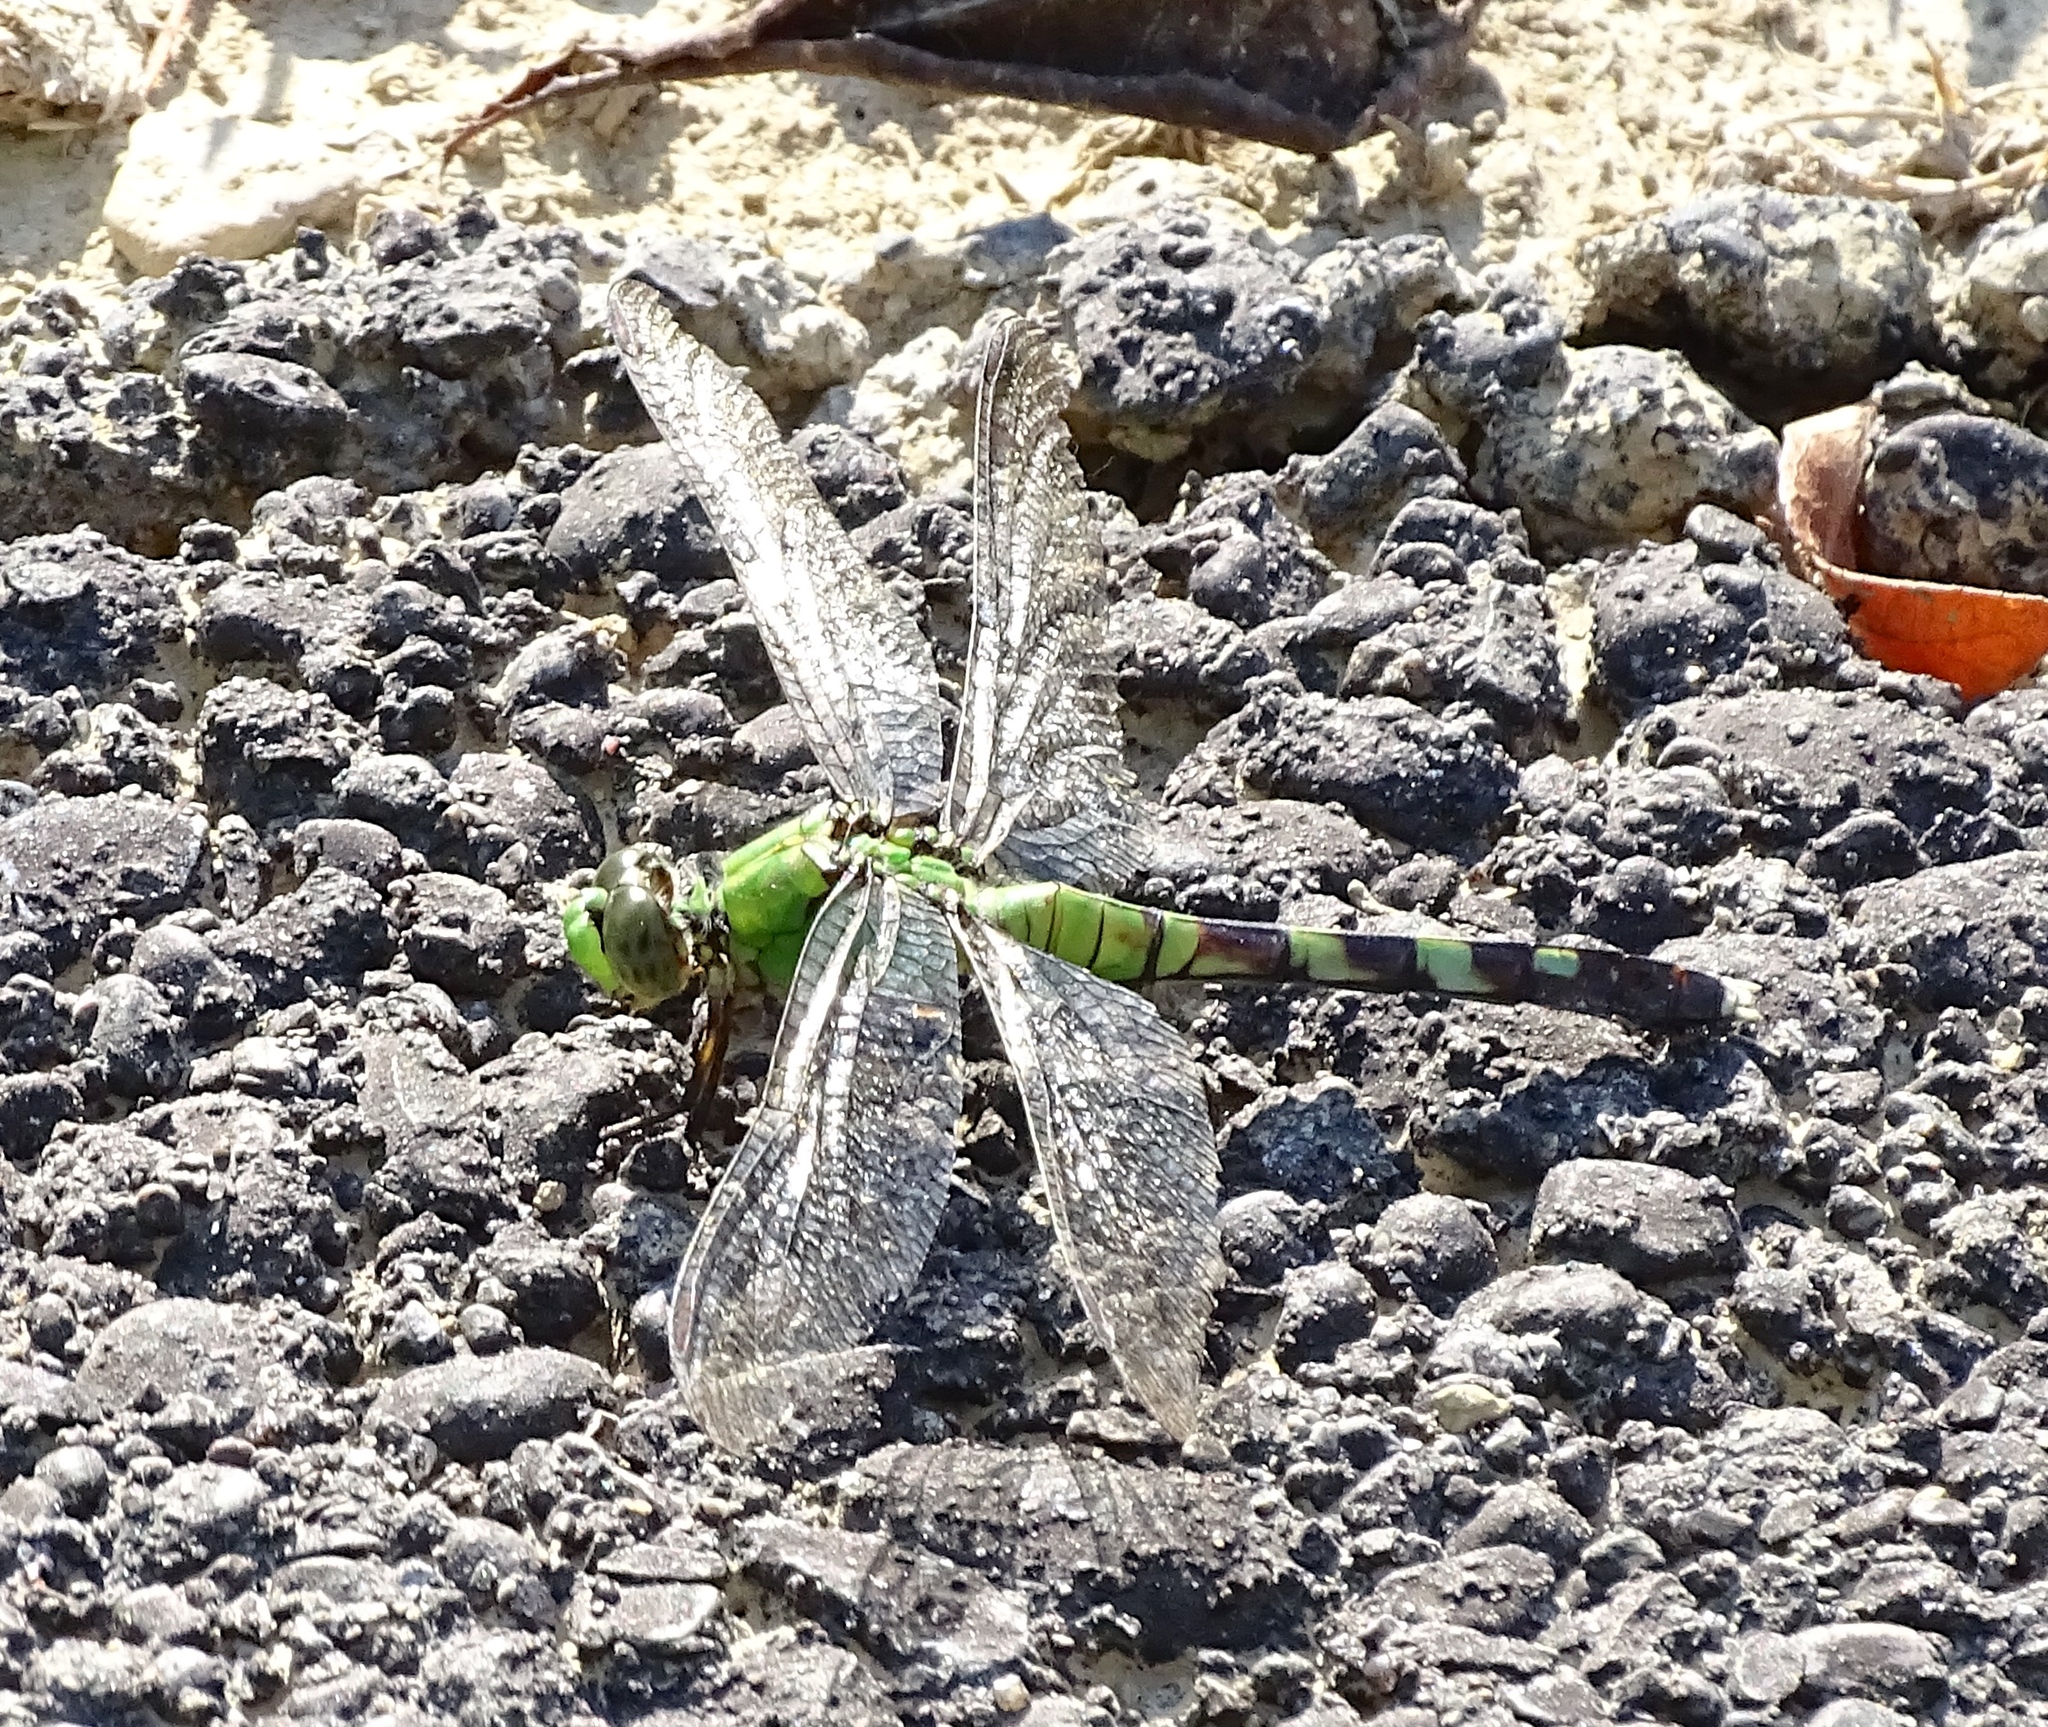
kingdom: Animalia
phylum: Arthropoda
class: Insecta
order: Odonata
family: Libellulidae
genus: Erythemis
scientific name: Erythemis simplicicollis
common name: Eastern pondhawk
